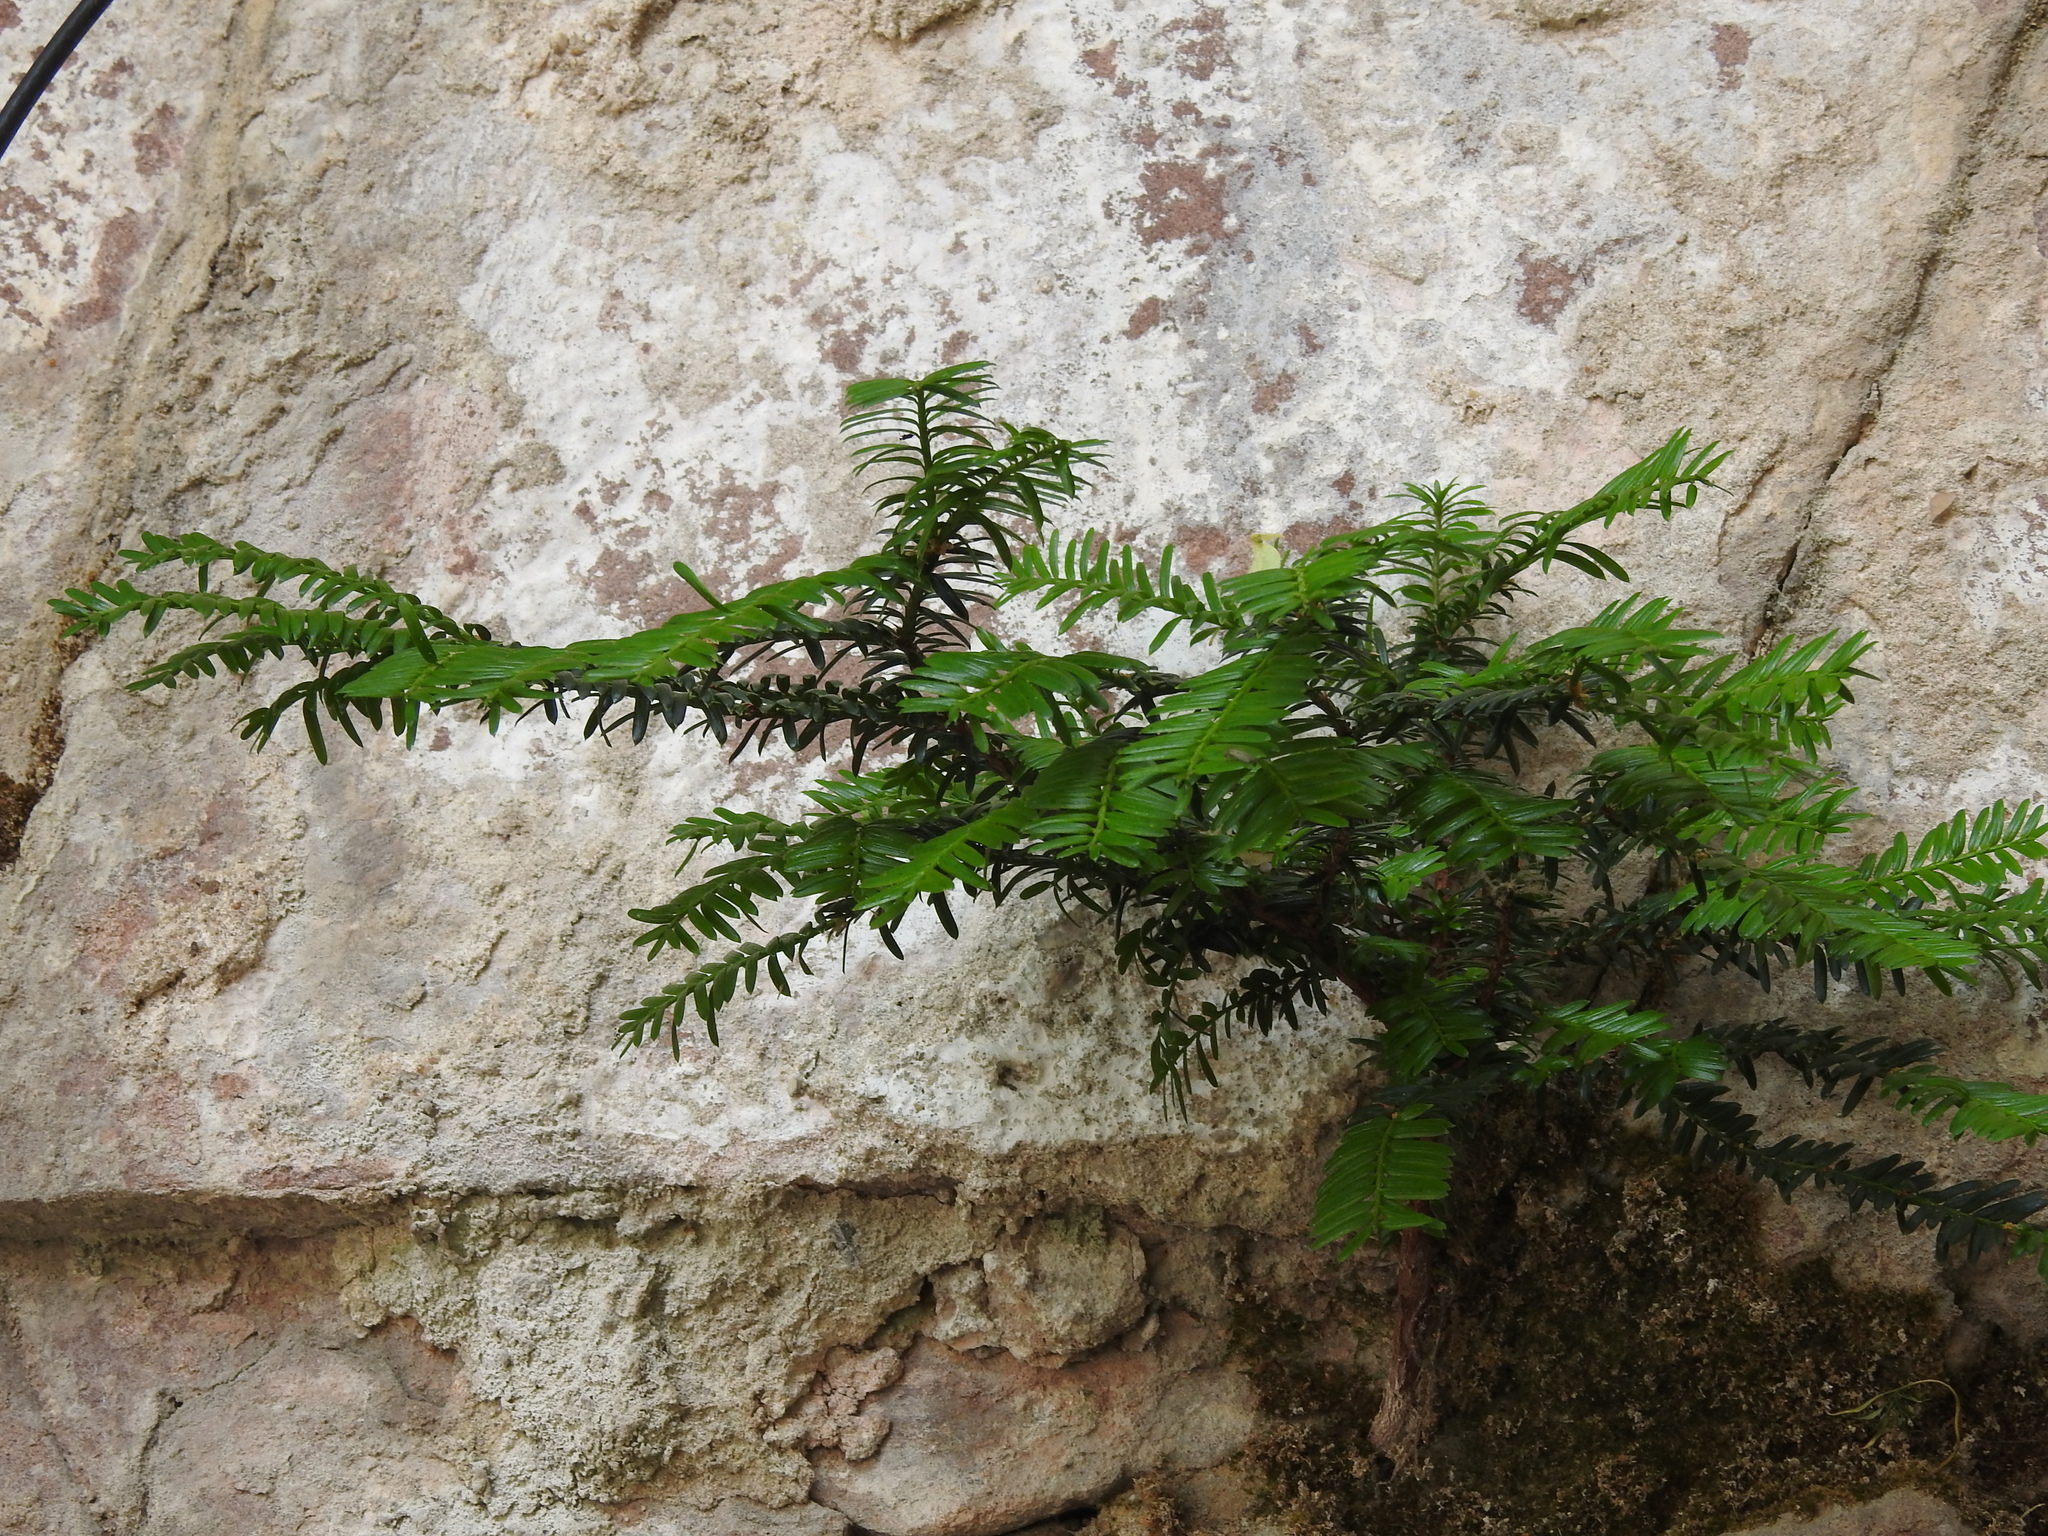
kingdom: Plantae
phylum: Tracheophyta
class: Pinopsida
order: Pinales
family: Taxaceae
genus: Taxus
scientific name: Taxus baccata
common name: Yew
